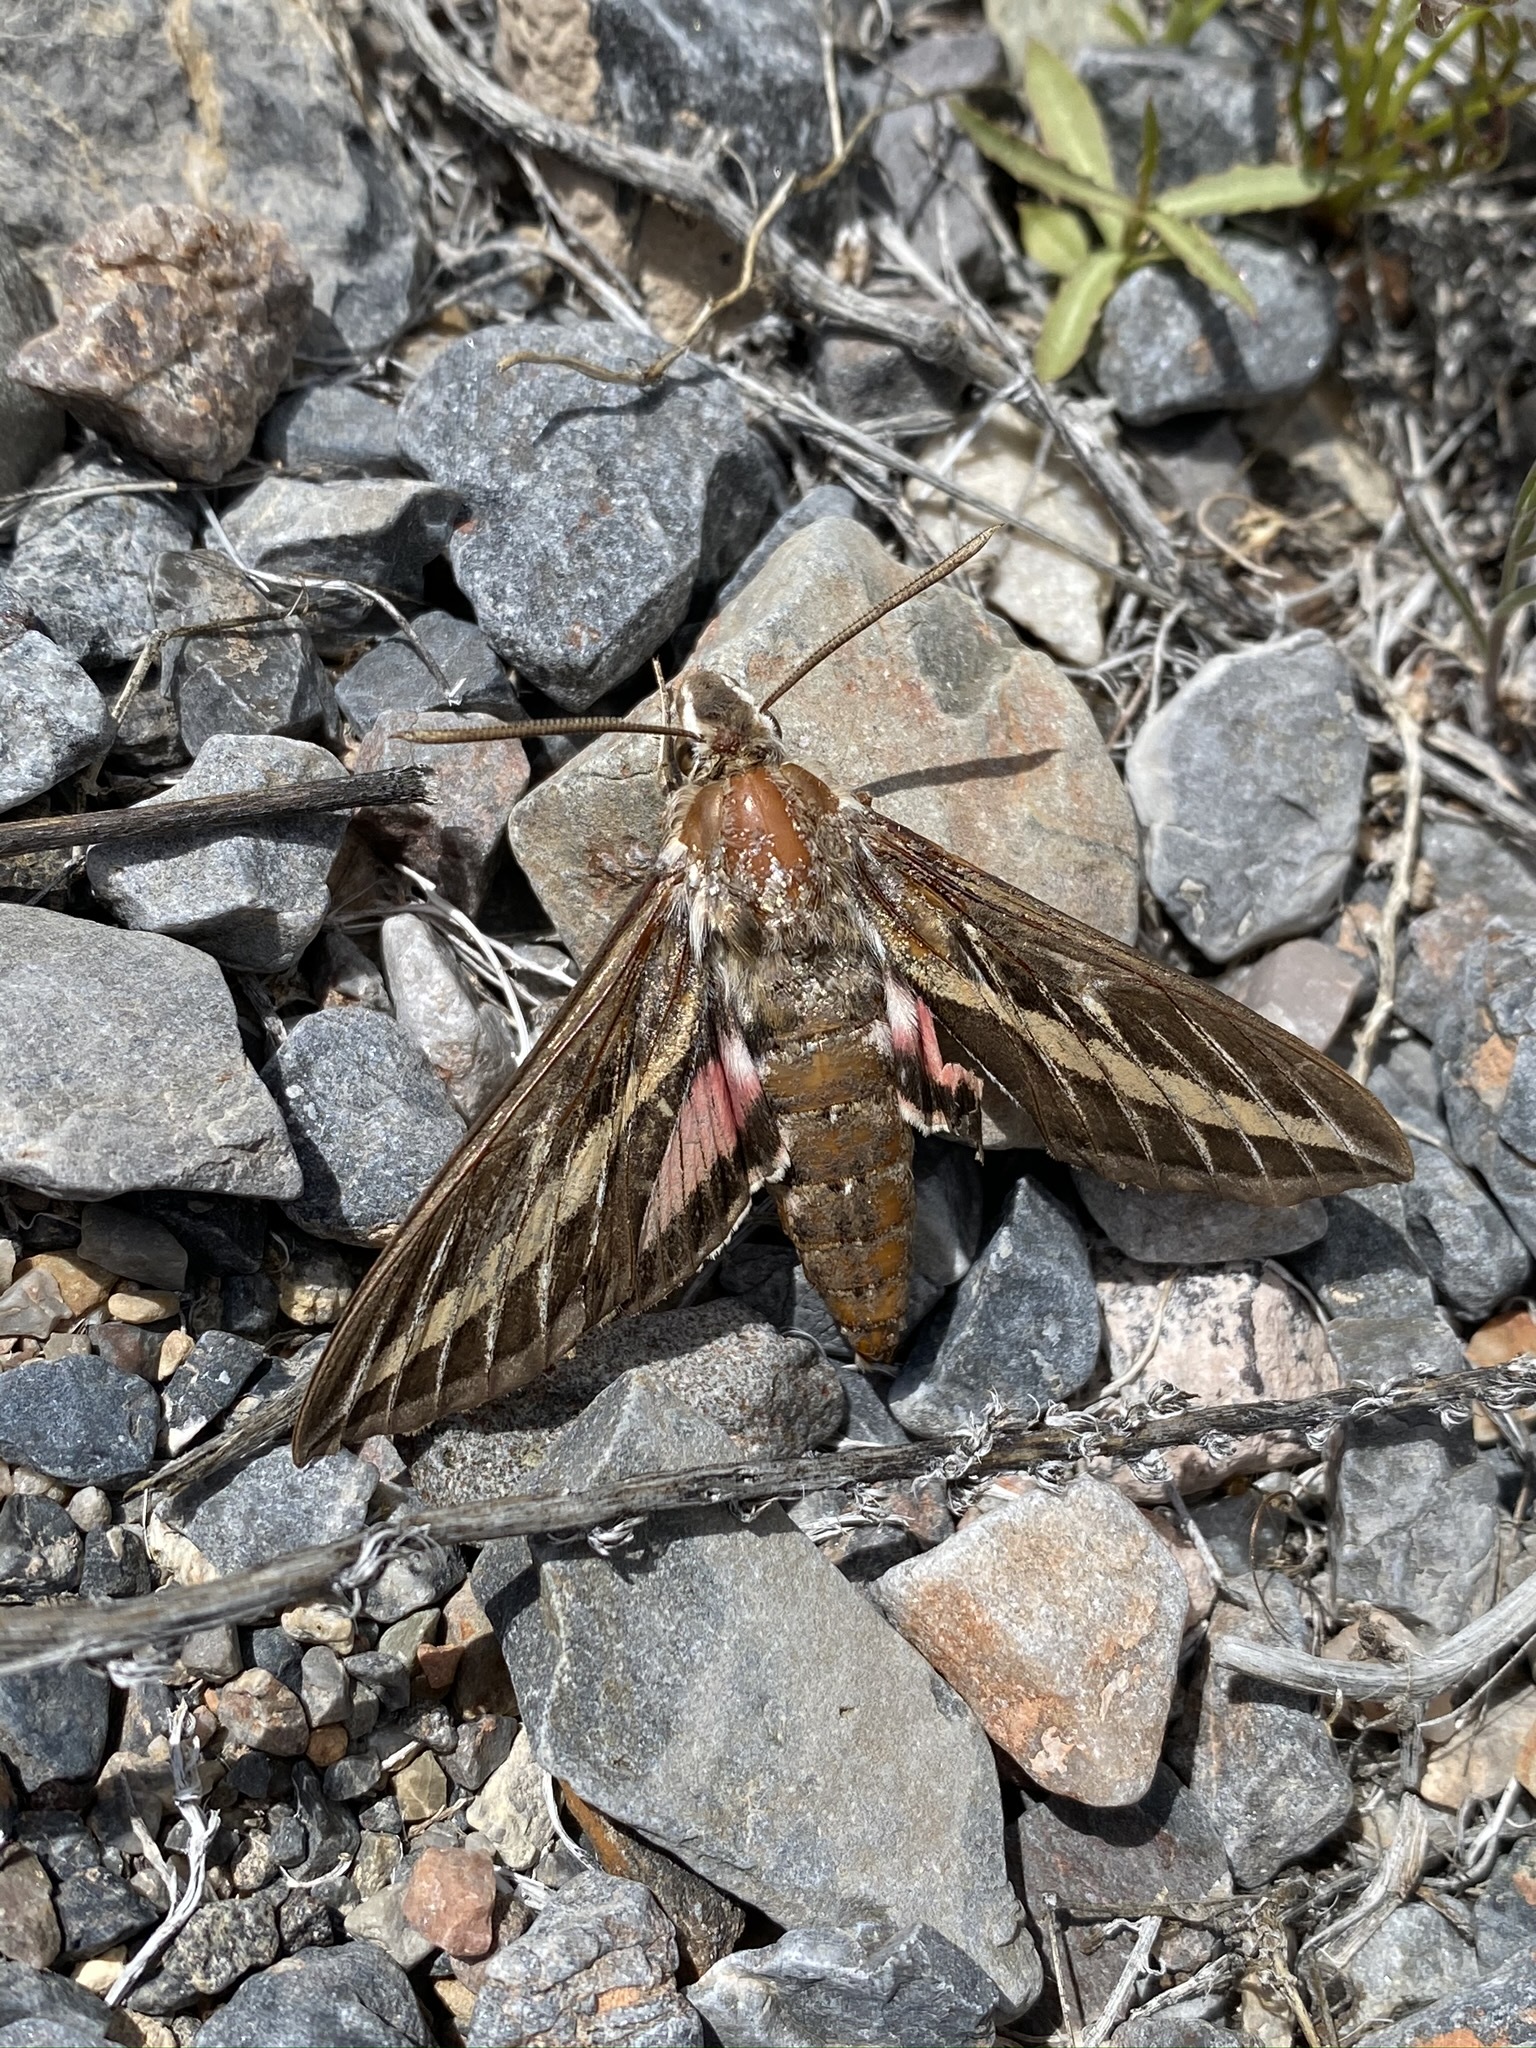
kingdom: Animalia
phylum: Arthropoda
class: Insecta
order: Lepidoptera
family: Sphingidae
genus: Hyles
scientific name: Hyles lineata
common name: White-lined sphinx
